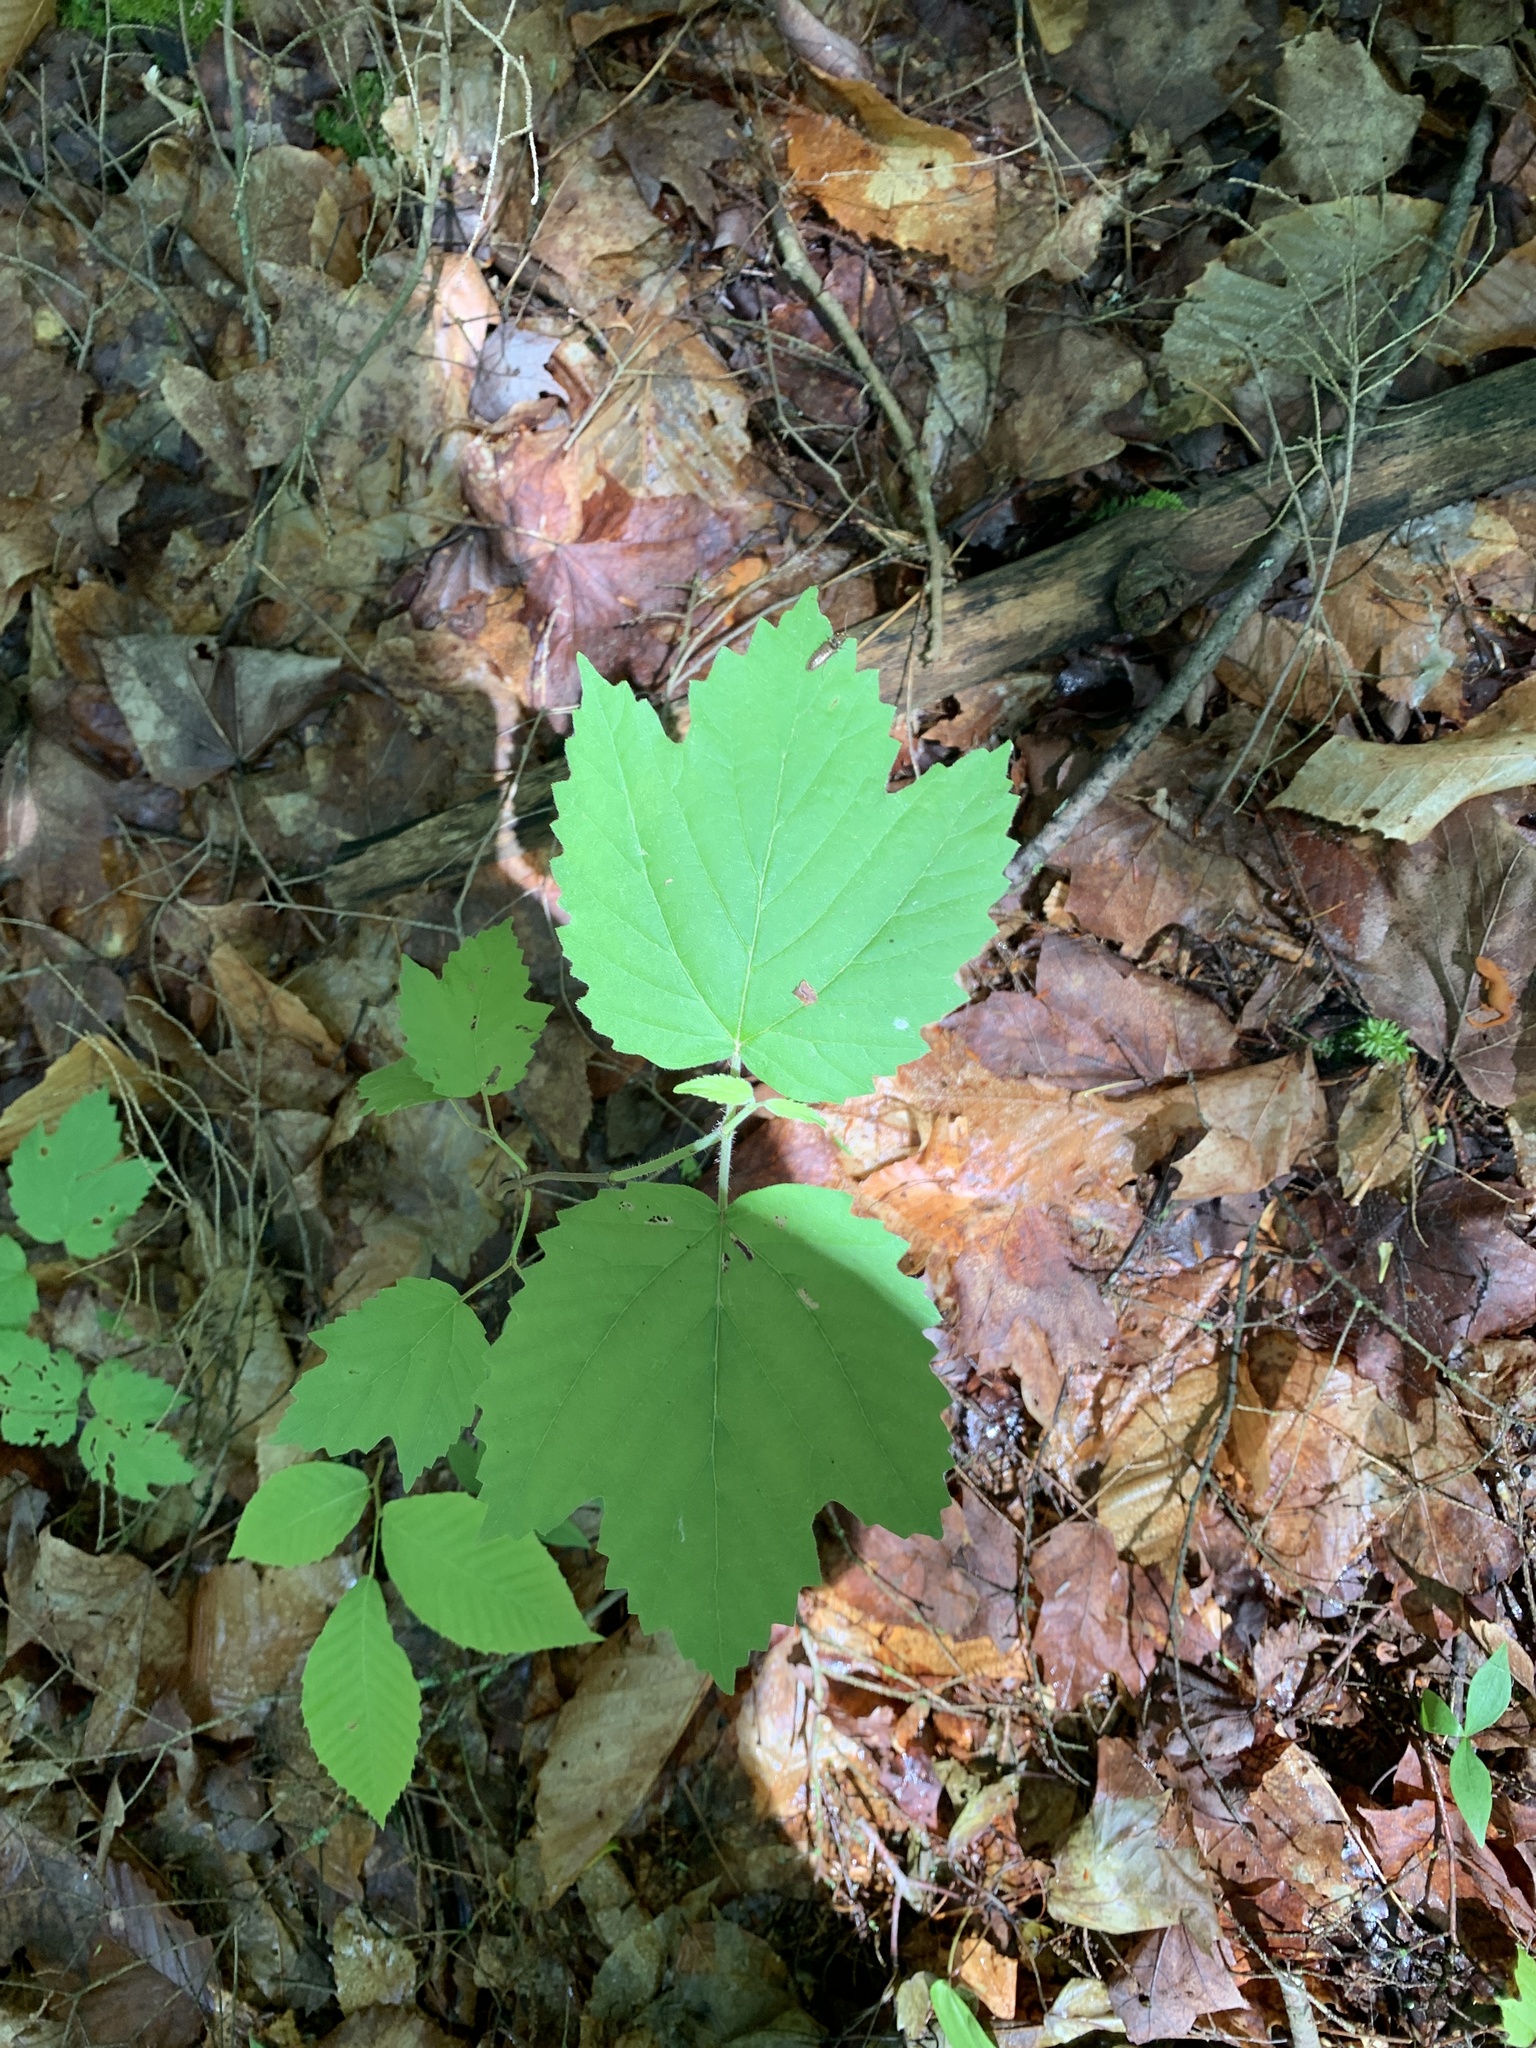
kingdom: Plantae
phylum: Tracheophyta
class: Magnoliopsida
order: Dipsacales
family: Viburnaceae
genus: Viburnum
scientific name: Viburnum acerifolium
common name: Dockmackie
